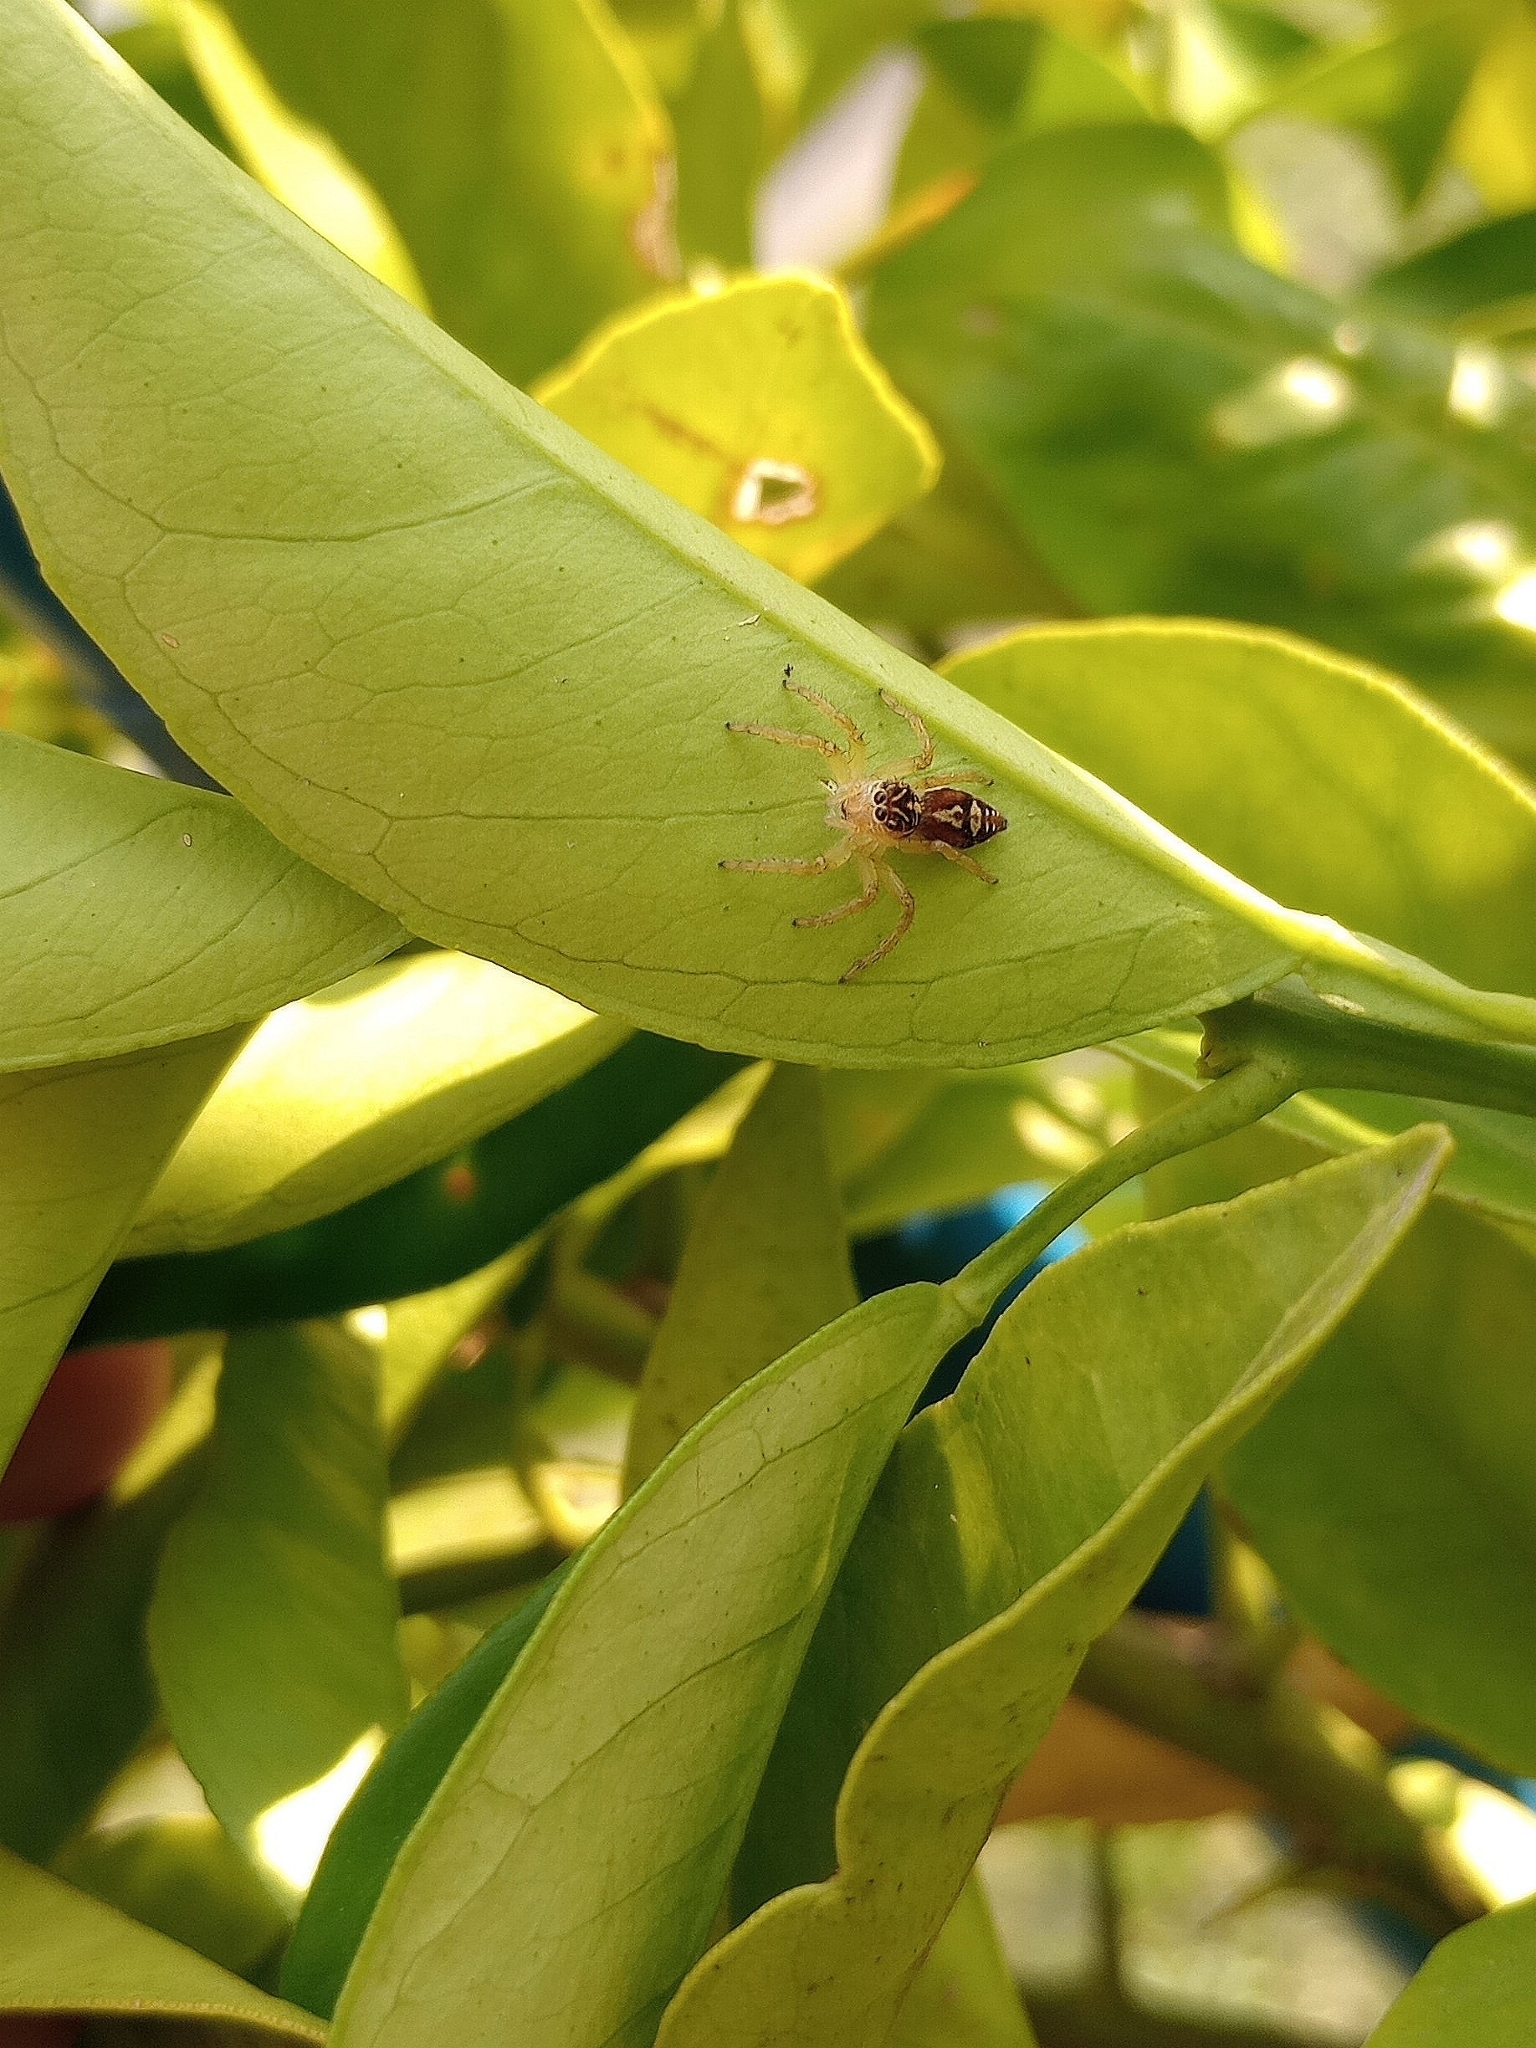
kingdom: Animalia
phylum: Arthropoda
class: Arachnida
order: Araneae
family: Salticidae
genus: Frigga
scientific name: Frigga quintensis
